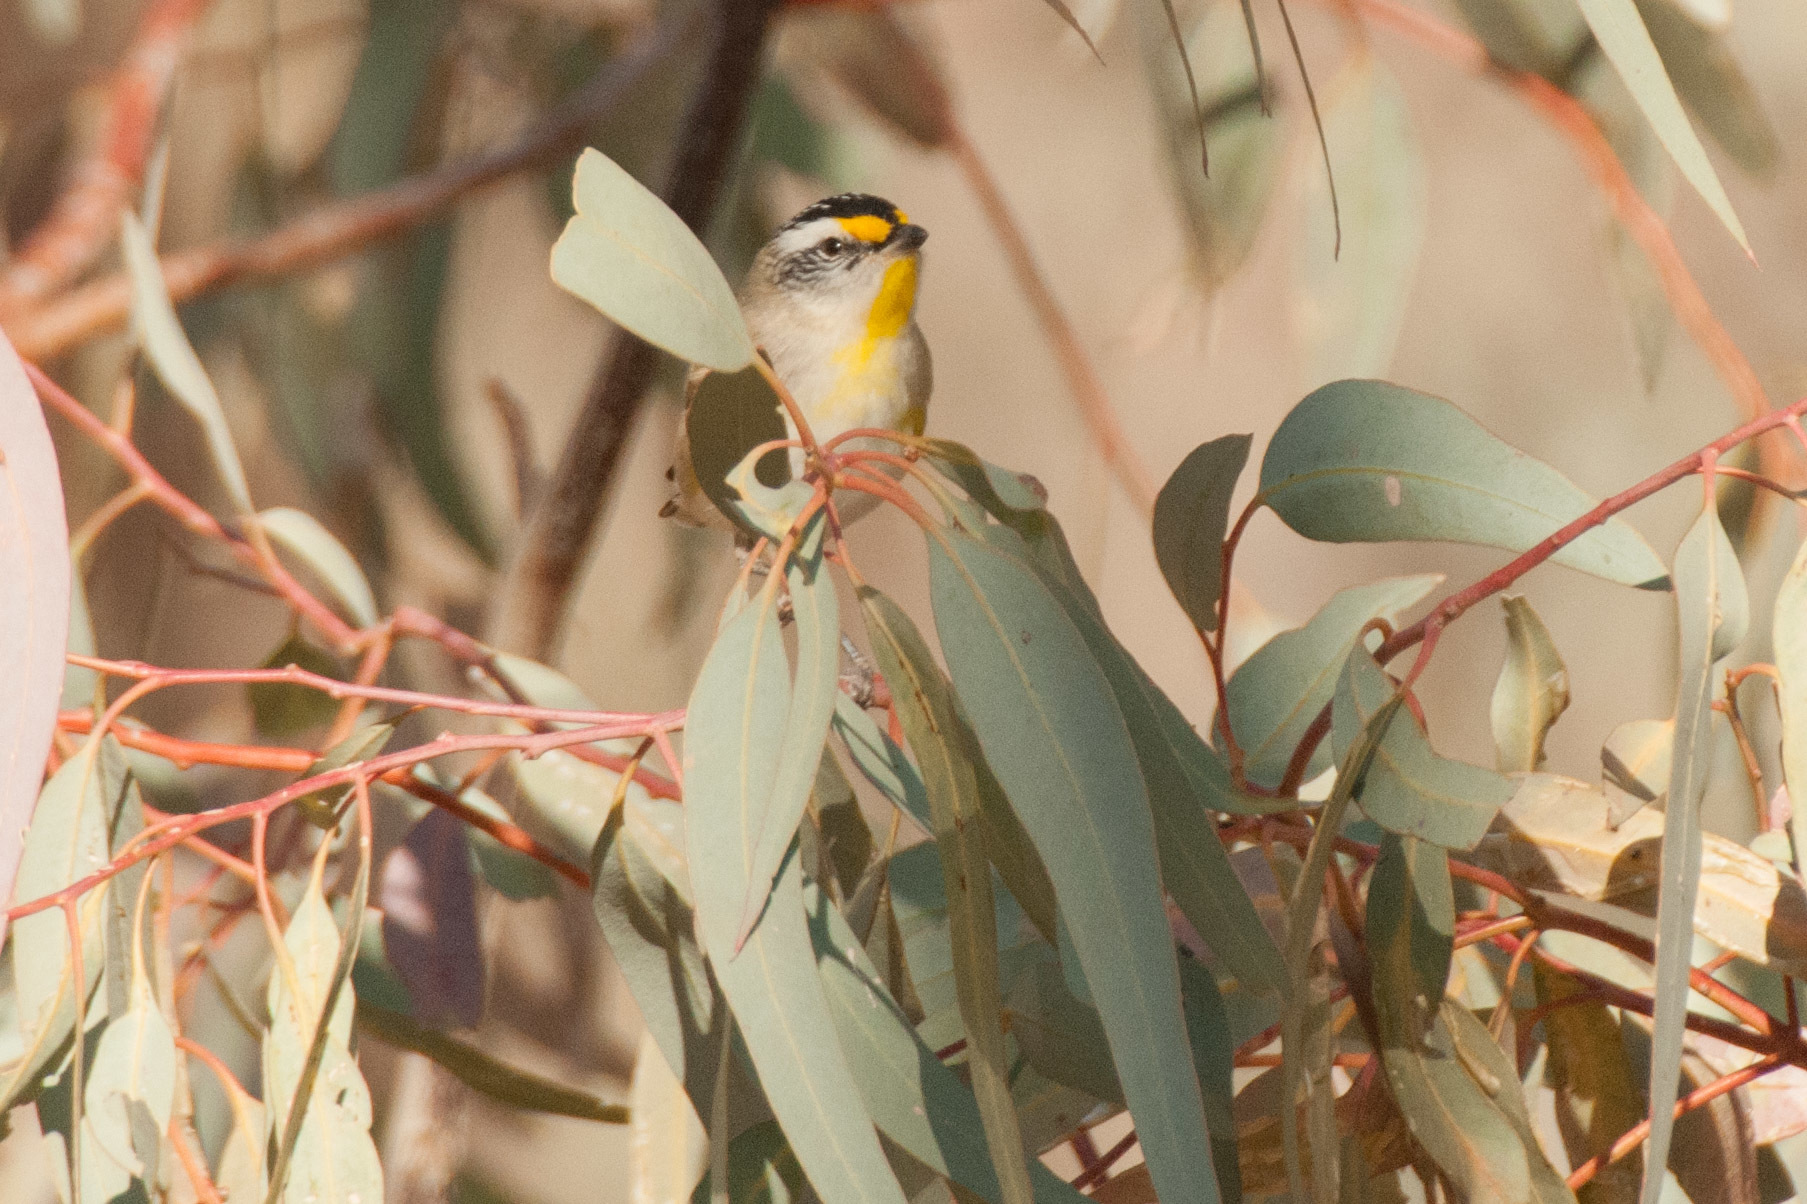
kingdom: Animalia
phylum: Chordata
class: Aves
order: Passeriformes
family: Pardalotidae
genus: Pardalotus
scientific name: Pardalotus striatus
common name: Striated pardalote
